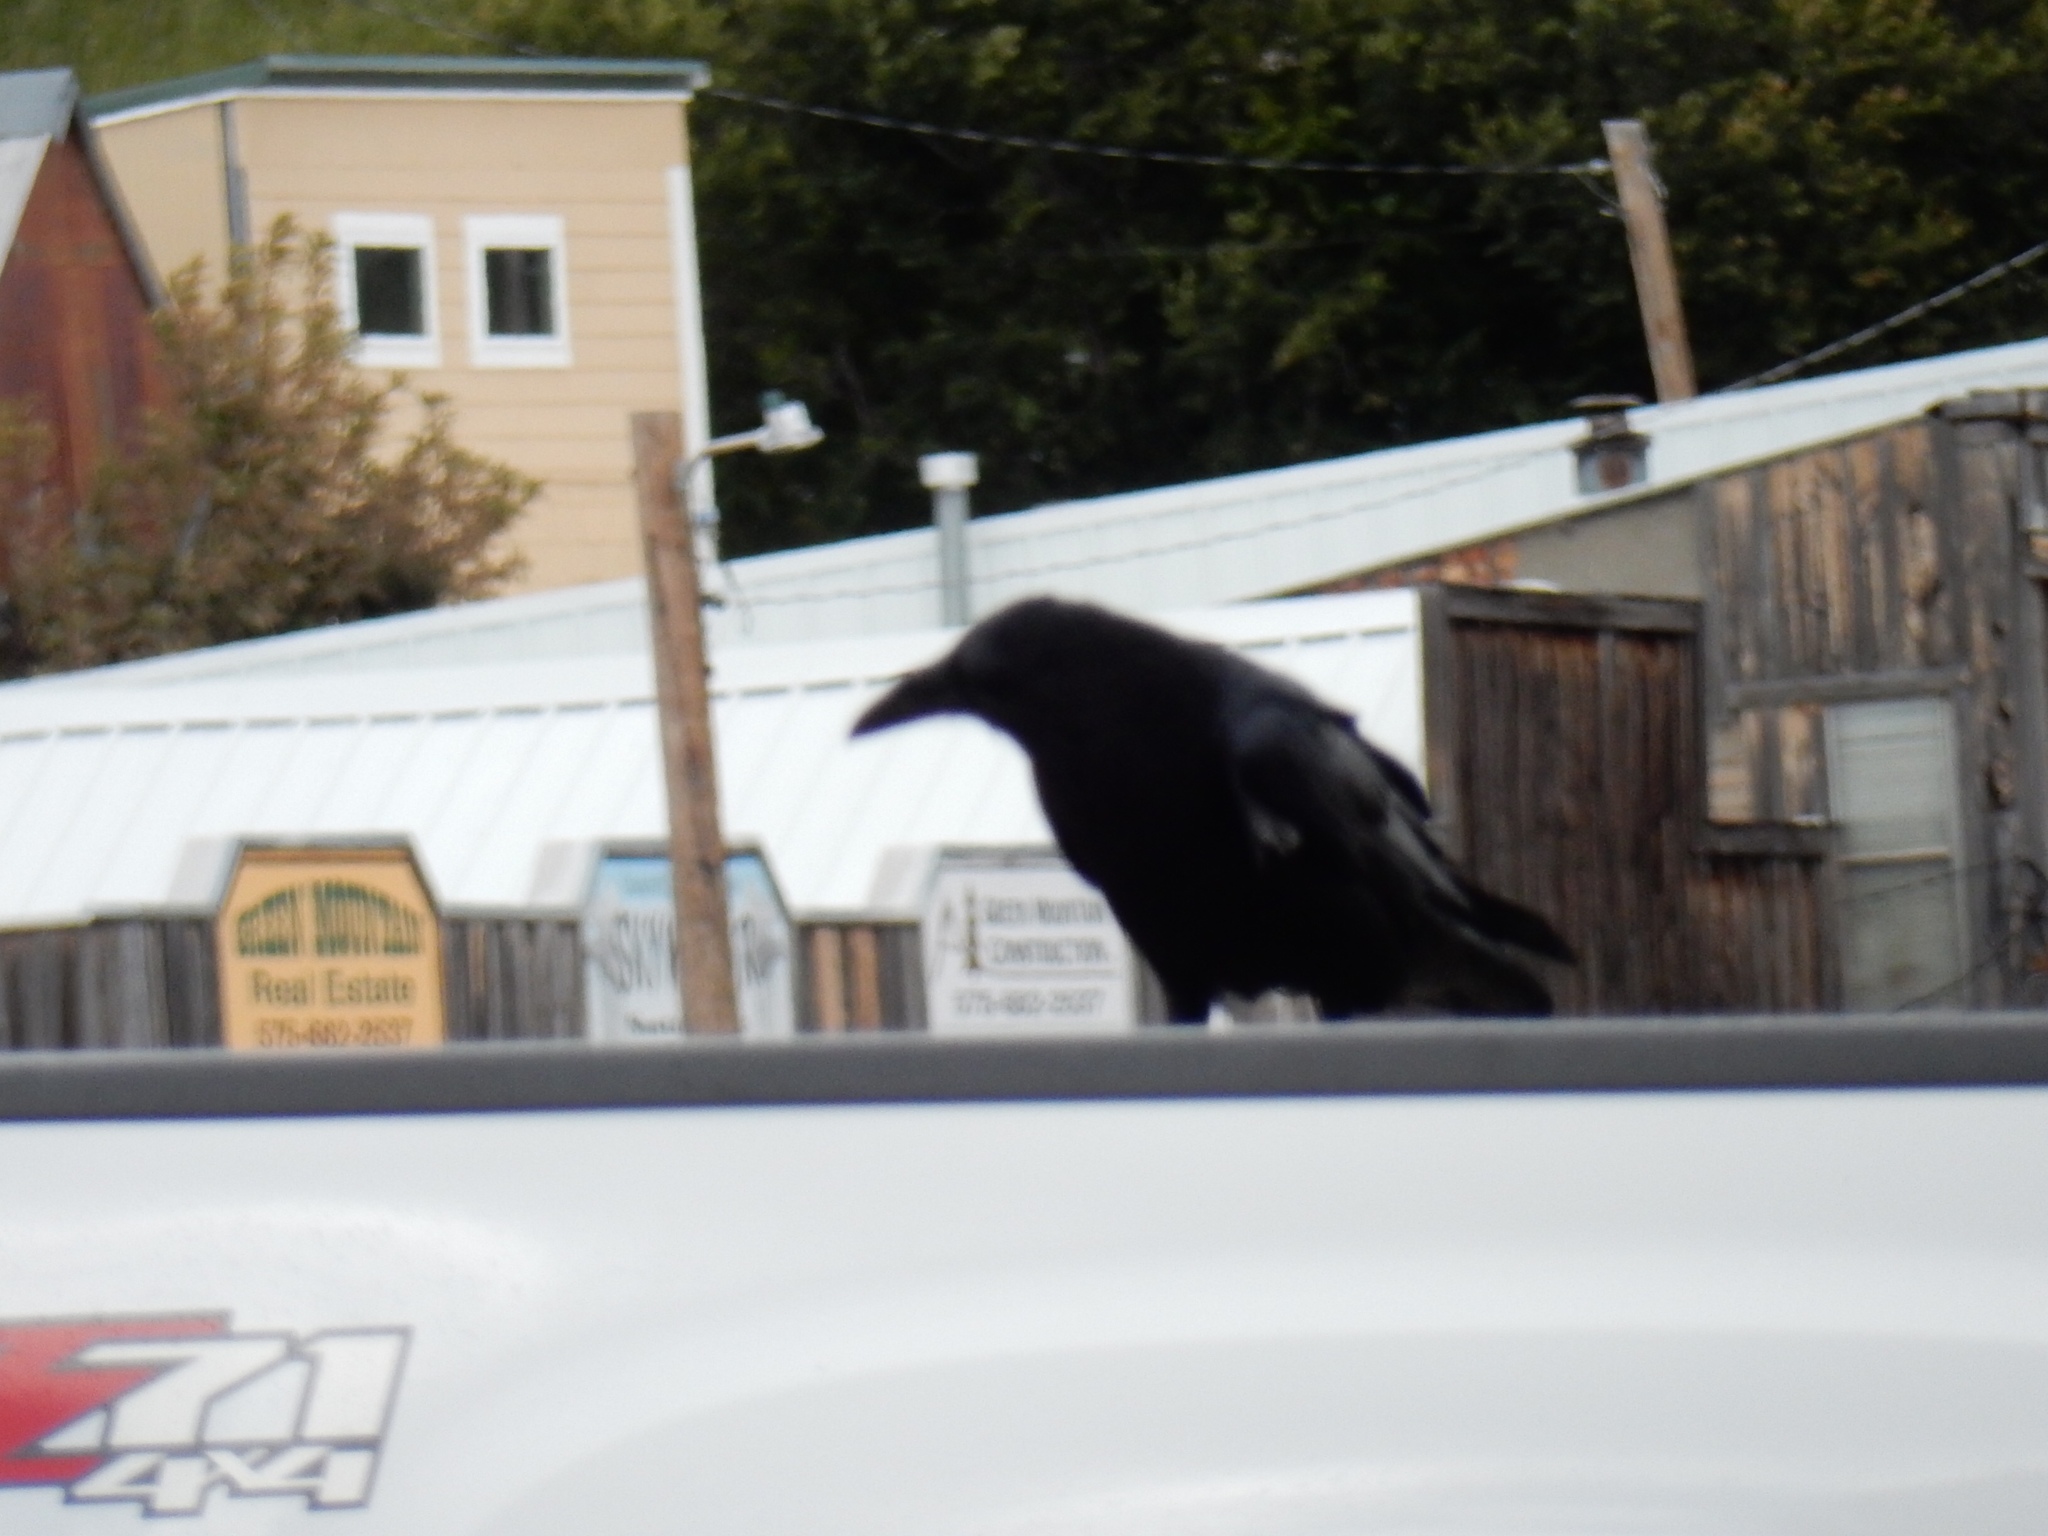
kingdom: Animalia
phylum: Chordata
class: Aves
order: Passeriformes
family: Corvidae
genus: Corvus
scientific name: Corvus corax
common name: Common raven
